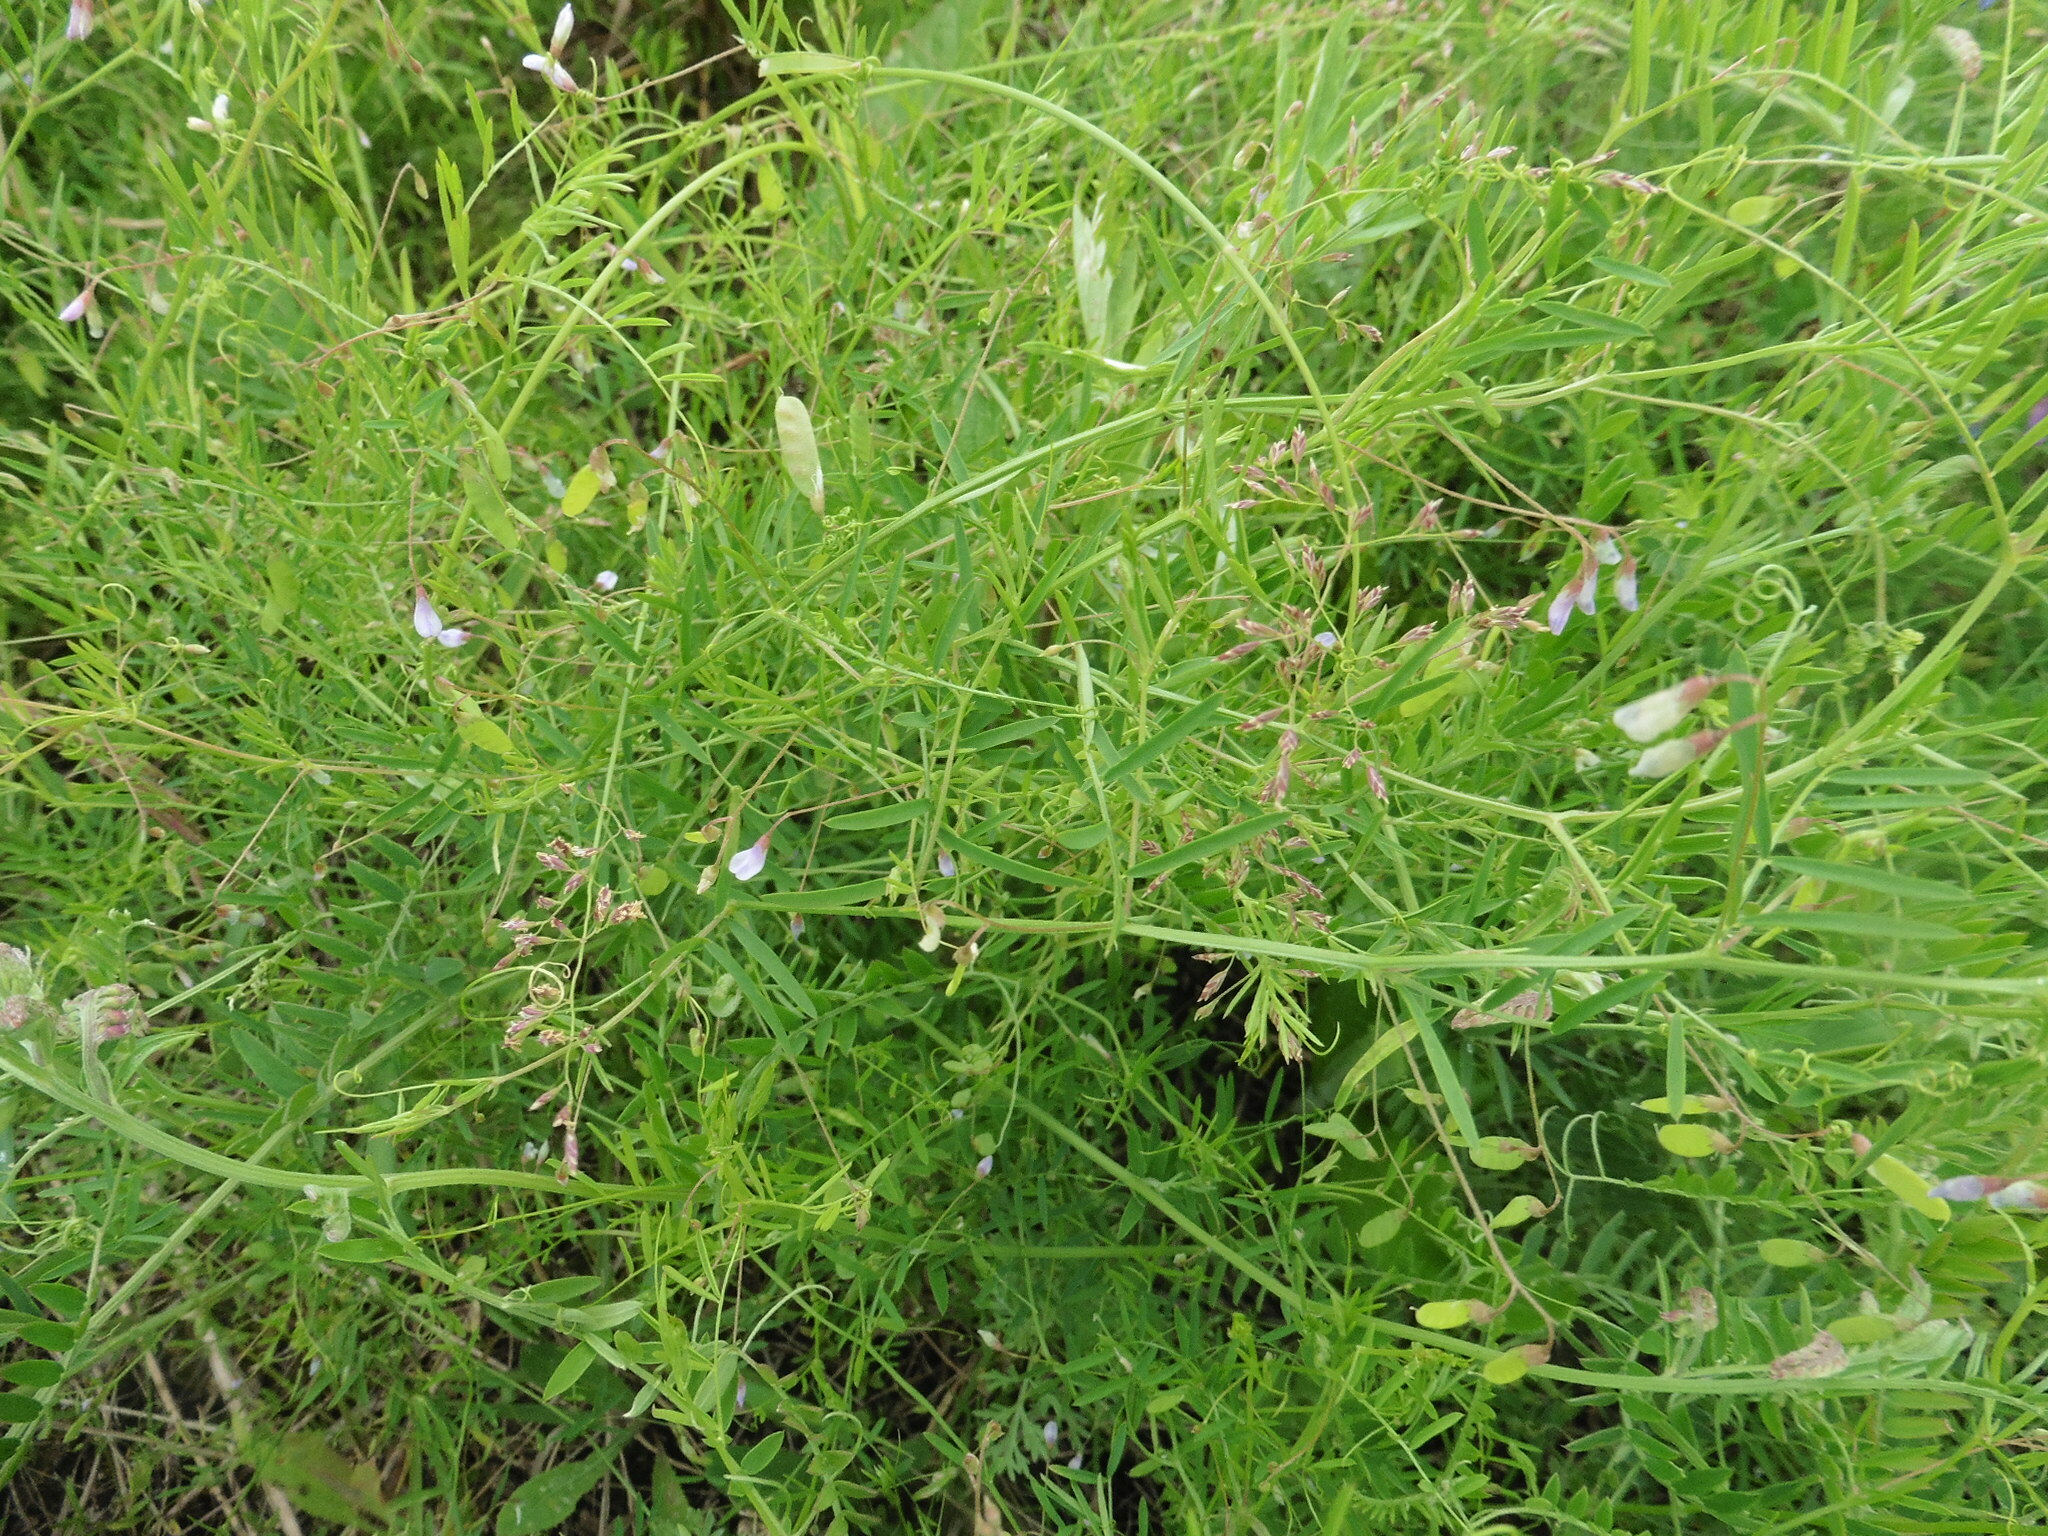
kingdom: Plantae
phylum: Tracheophyta
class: Magnoliopsida
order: Fabales
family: Fabaceae
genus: Vicia
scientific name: Vicia tetrasperma
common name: Smooth tare
